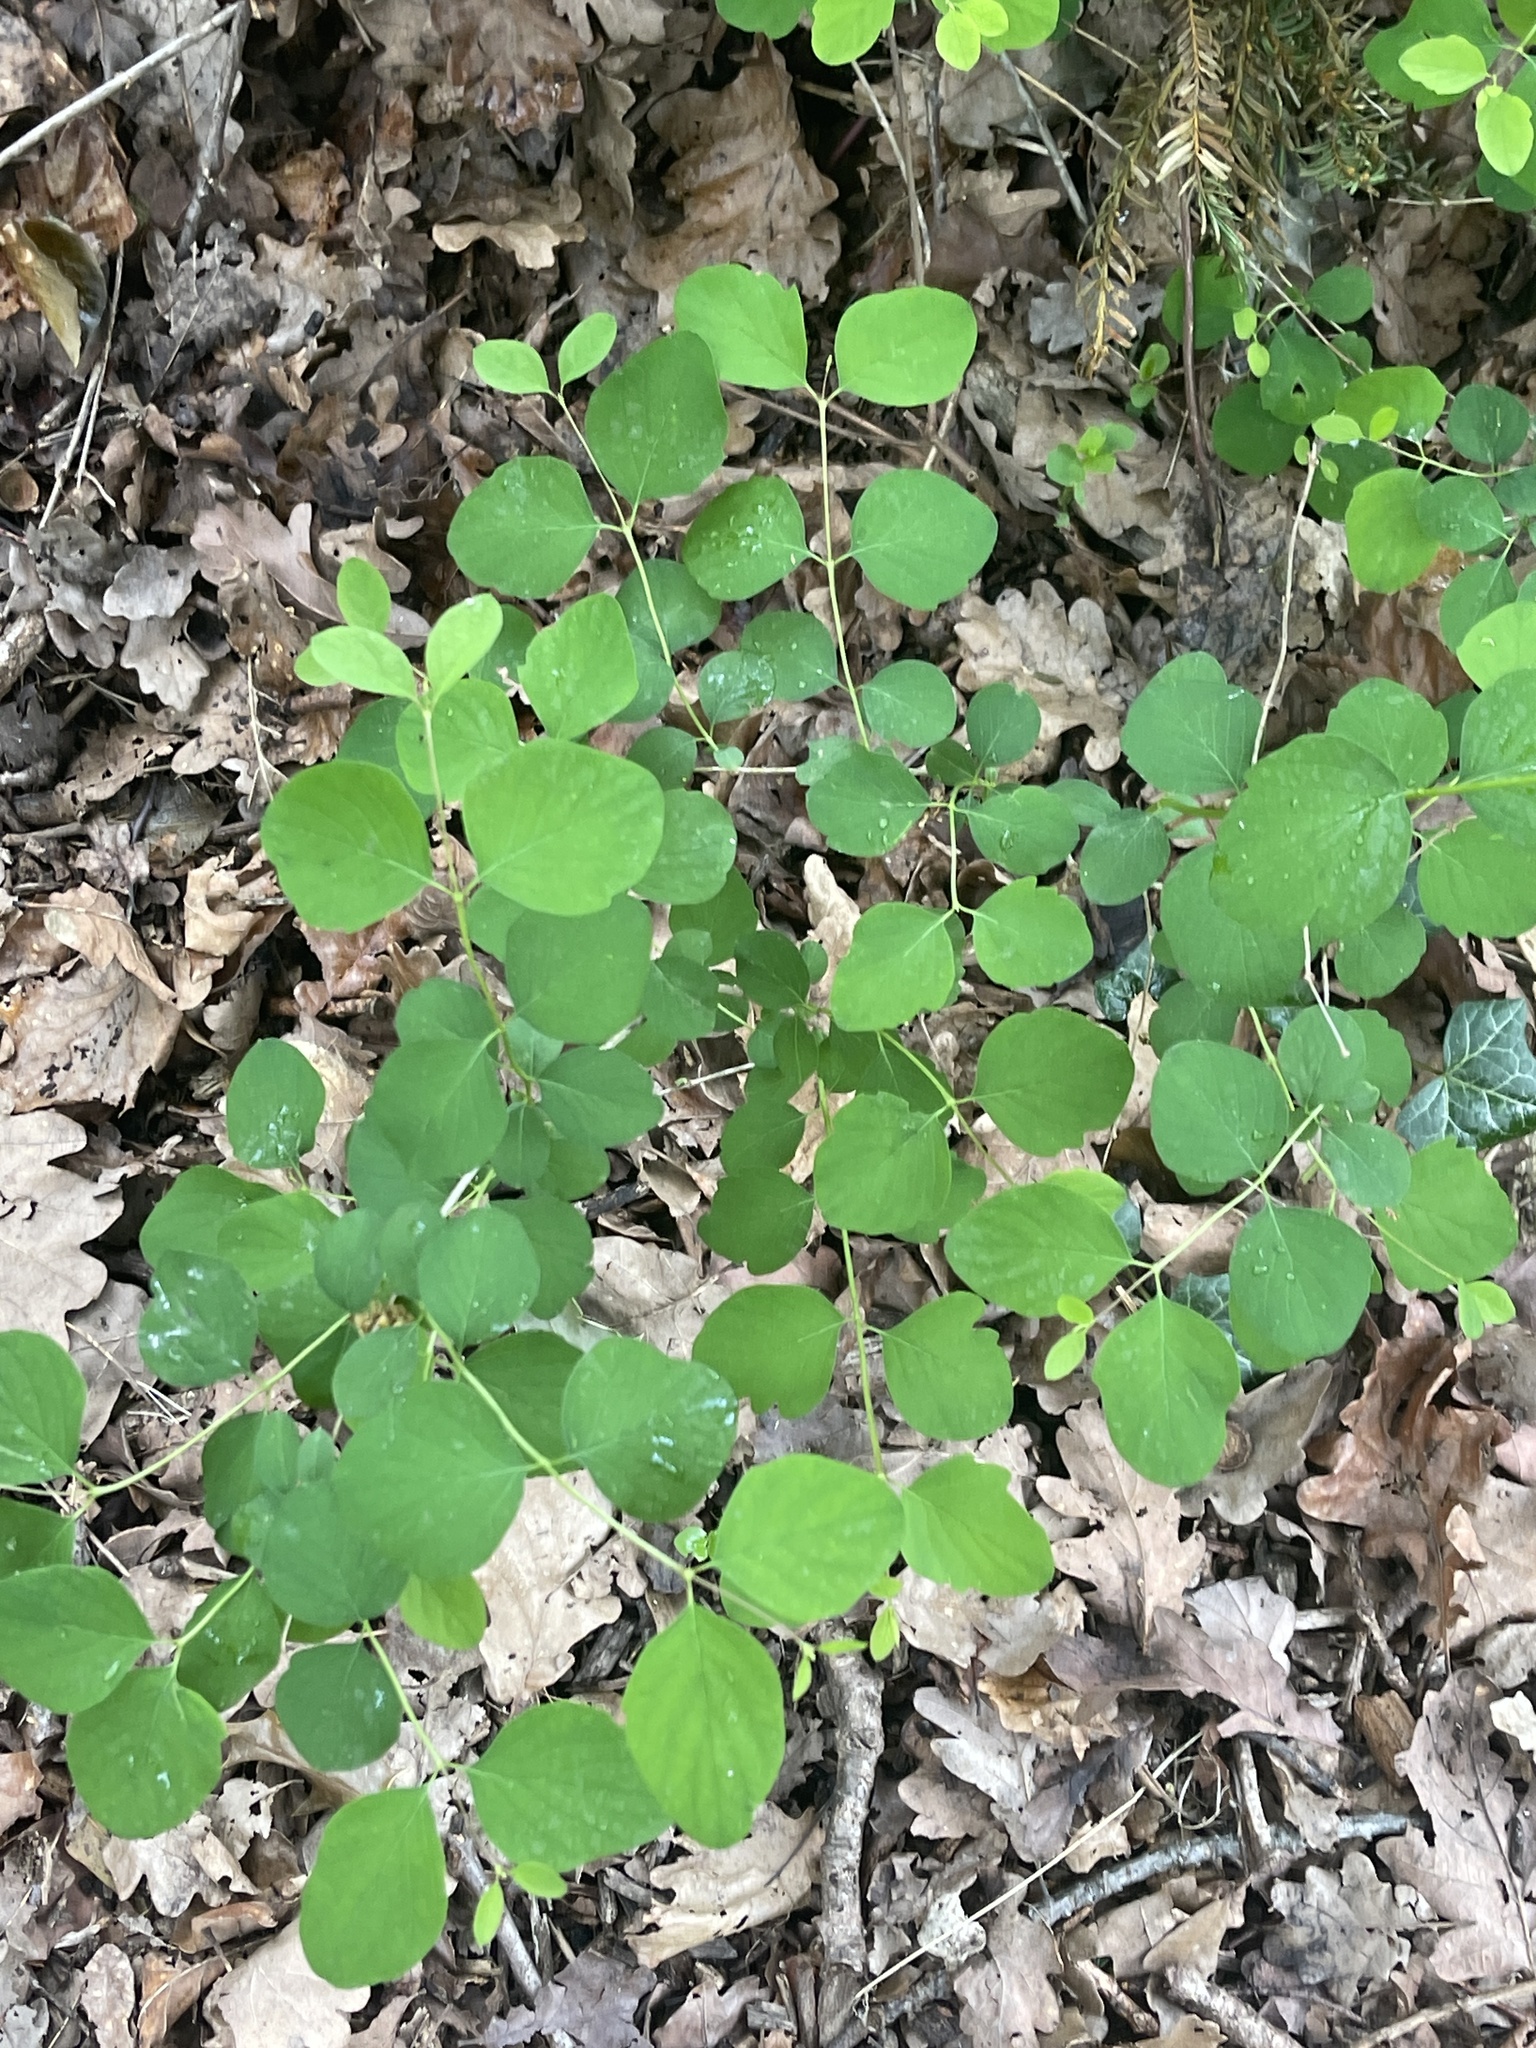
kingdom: Plantae
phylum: Tracheophyta
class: Magnoliopsida
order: Dipsacales
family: Caprifoliaceae
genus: Symphoricarpos
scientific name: Symphoricarpos albus
